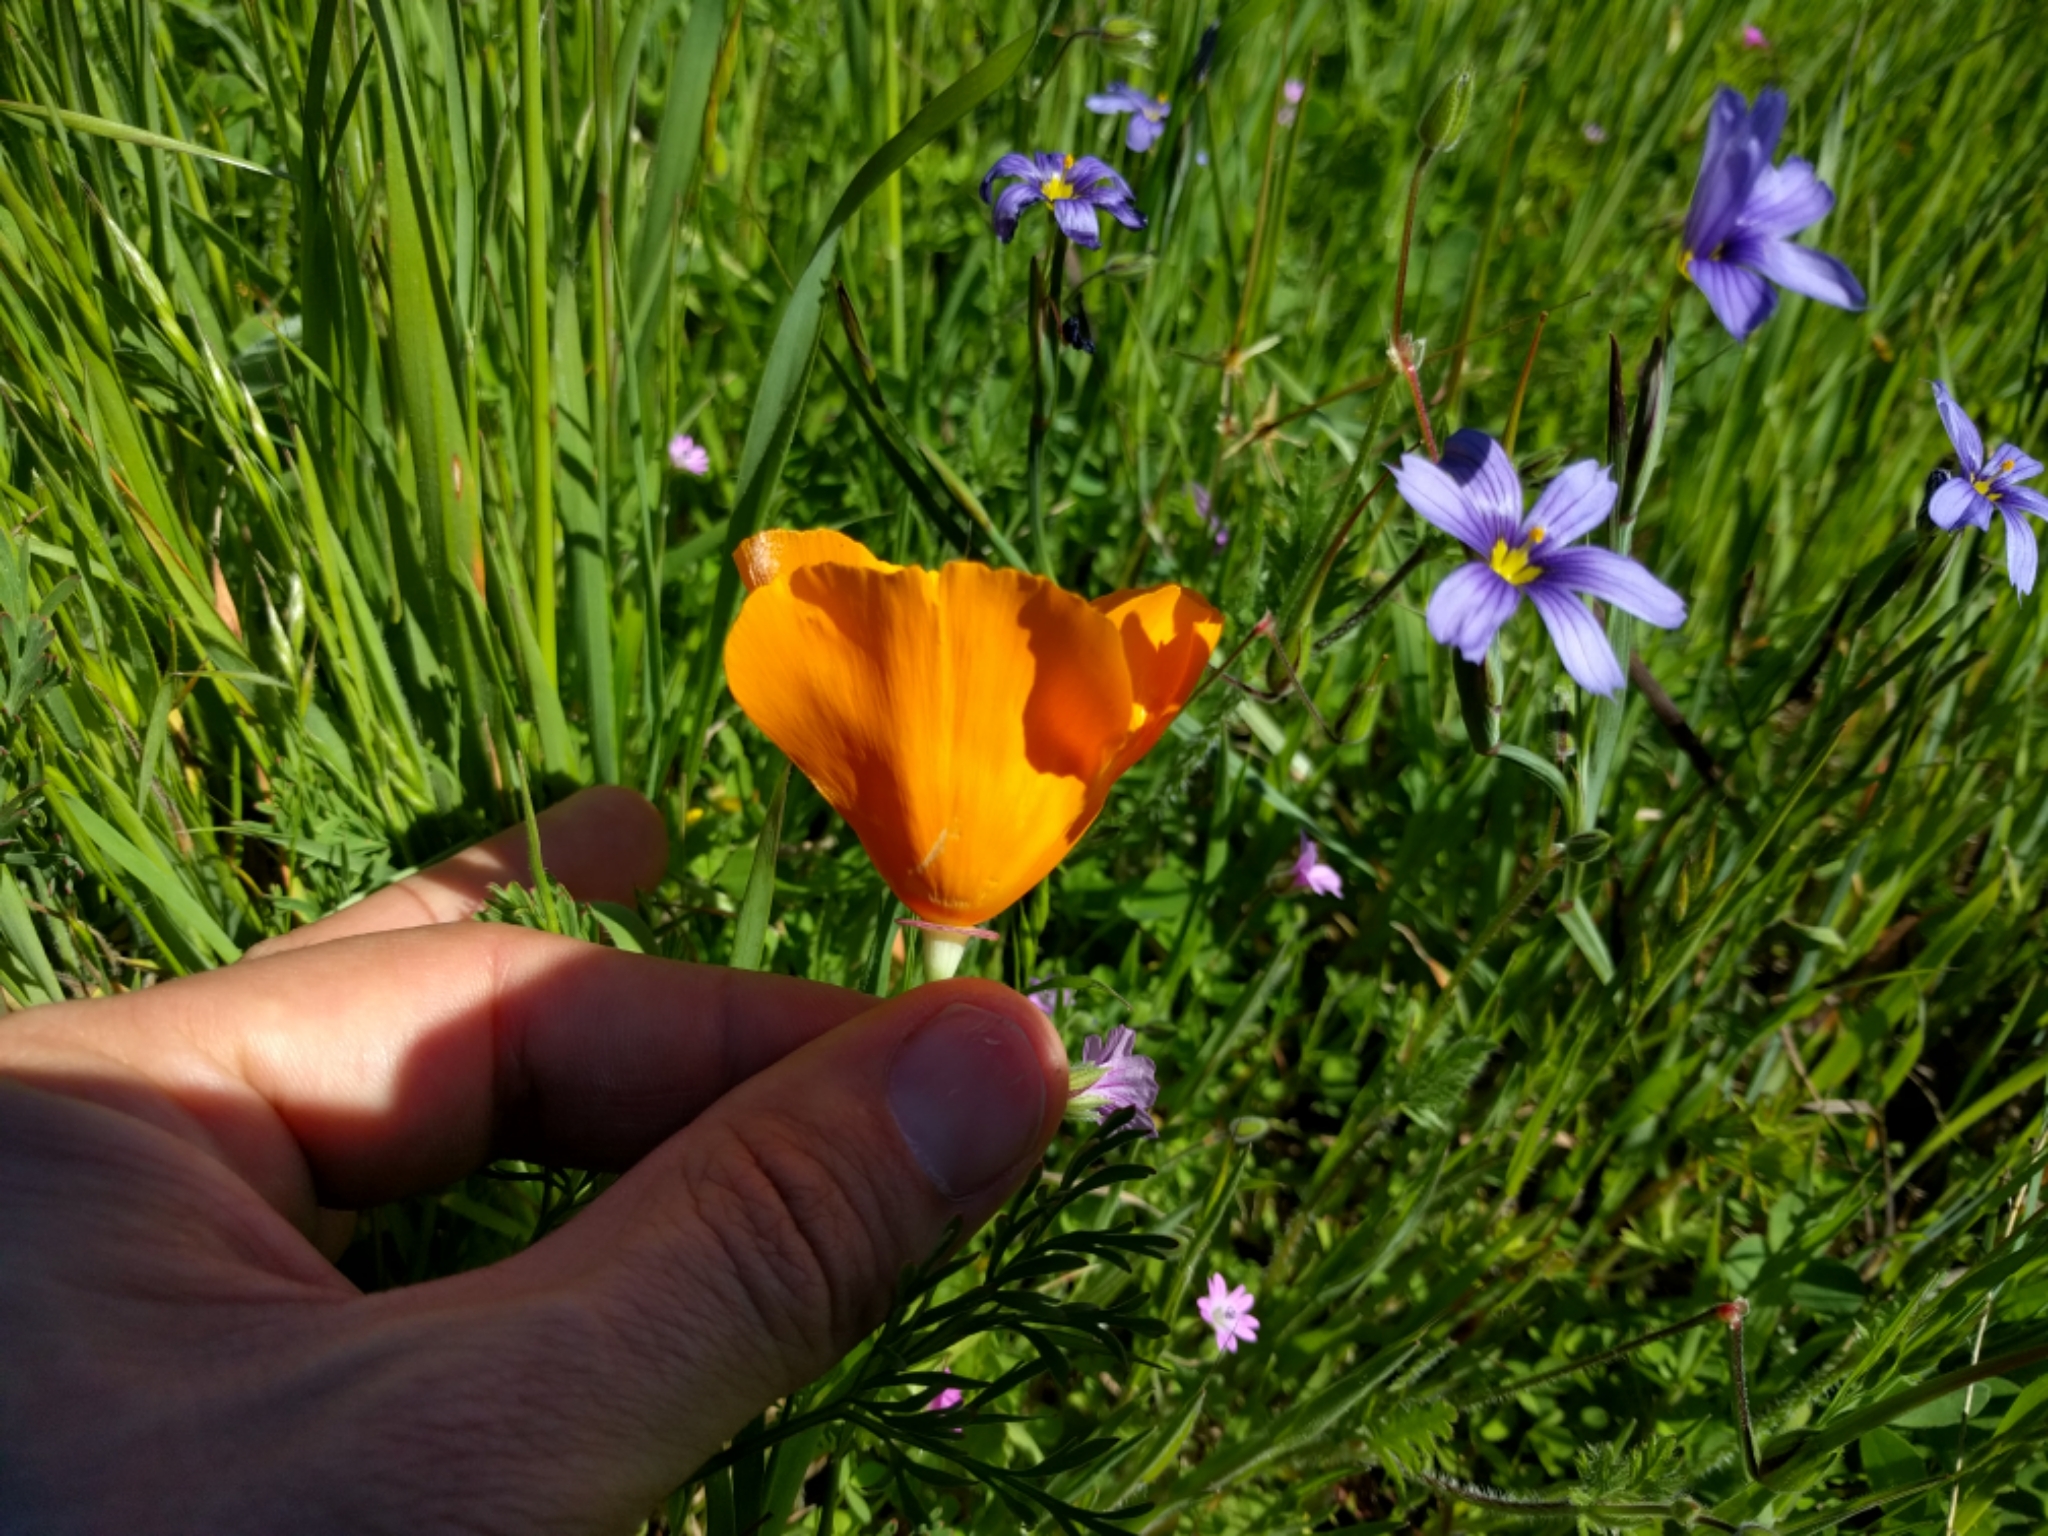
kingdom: Plantae
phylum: Tracheophyta
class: Magnoliopsida
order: Ranunculales
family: Papaveraceae
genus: Eschscholzia
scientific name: Eschscholzia californica
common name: California poppy
